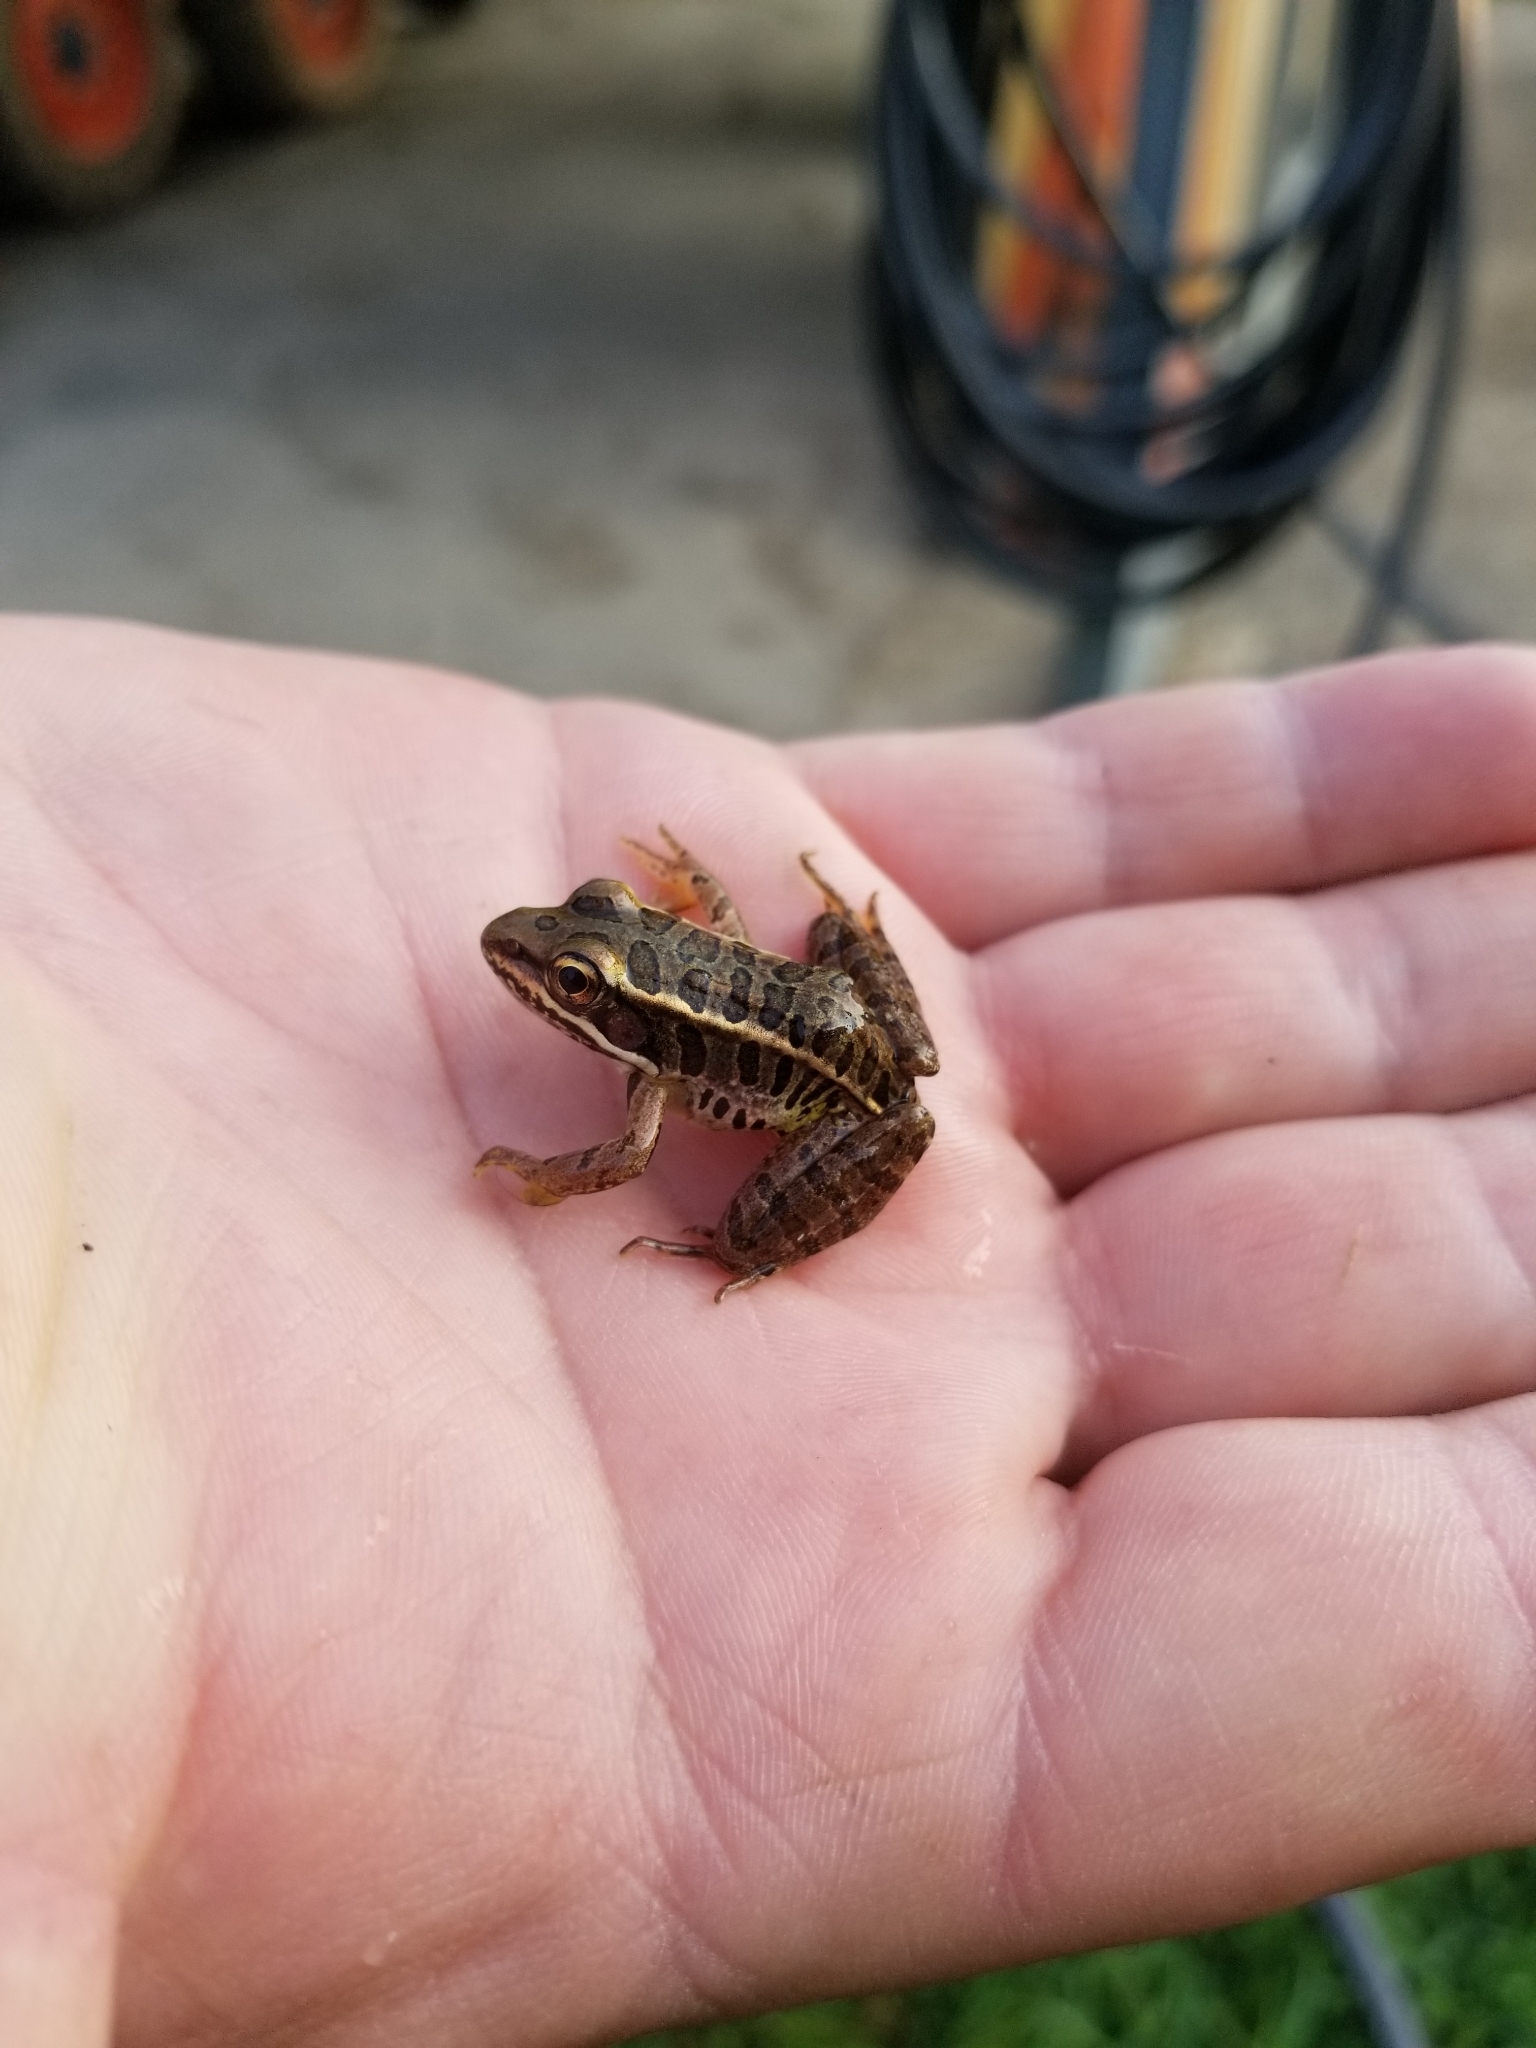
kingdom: Animalia
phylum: Chordata
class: Amphibia
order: Anura
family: Ranidae
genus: Lithobates
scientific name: Lithobates palustris
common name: Pickerel frog
